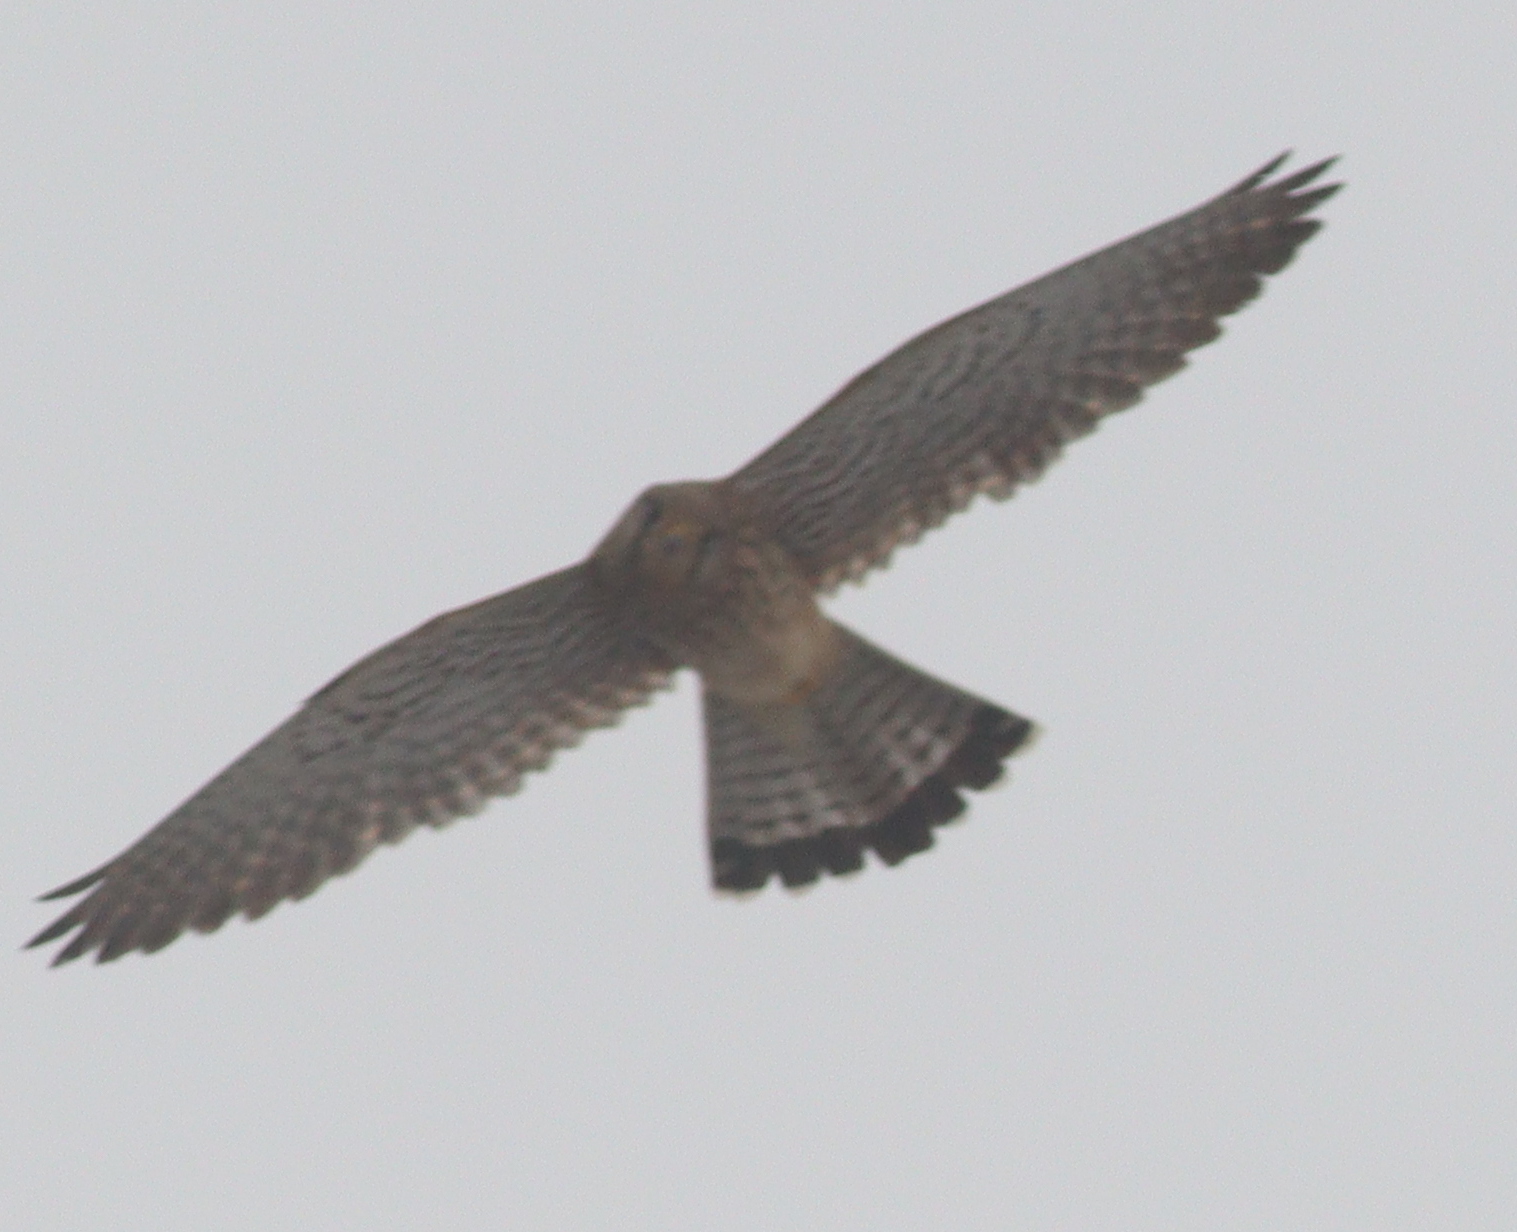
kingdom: Animalia
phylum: Chordata
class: Aves
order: Falconiformes
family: Falconidae
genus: Falco
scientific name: Falco tinnunculus
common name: Common kestrel
